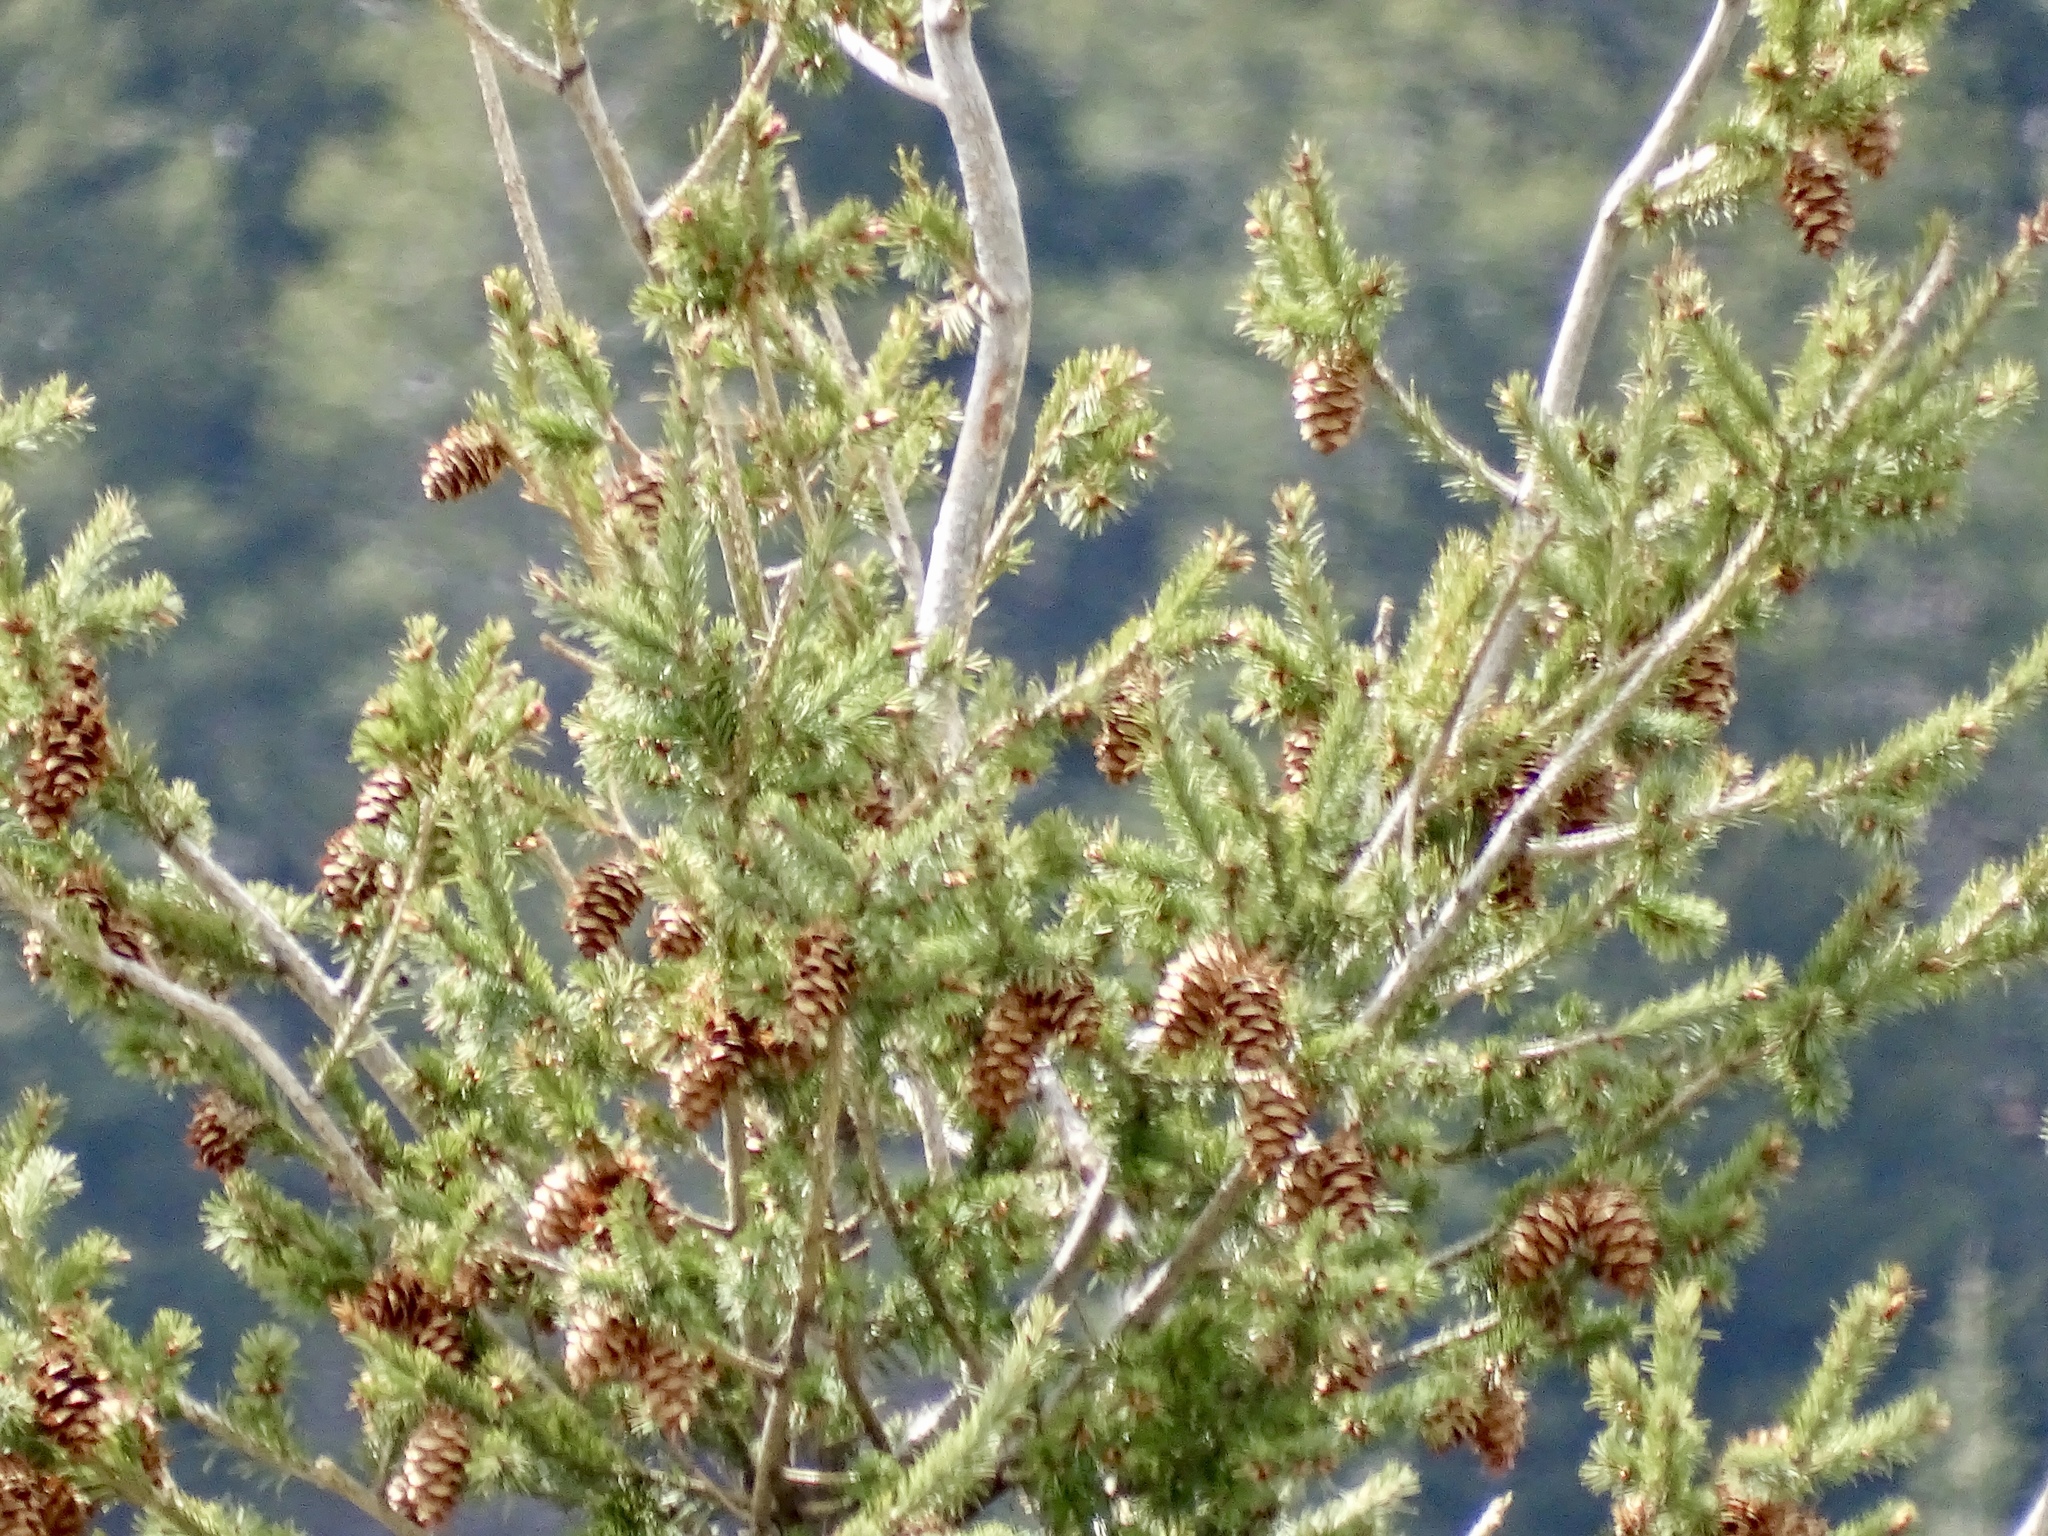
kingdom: Plantae
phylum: Tracheophyta
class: Pinopsida
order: Pinales
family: Pinaceae
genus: Pseudotsuga
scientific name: Pseudotsuga menziesii
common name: Douglas fir
